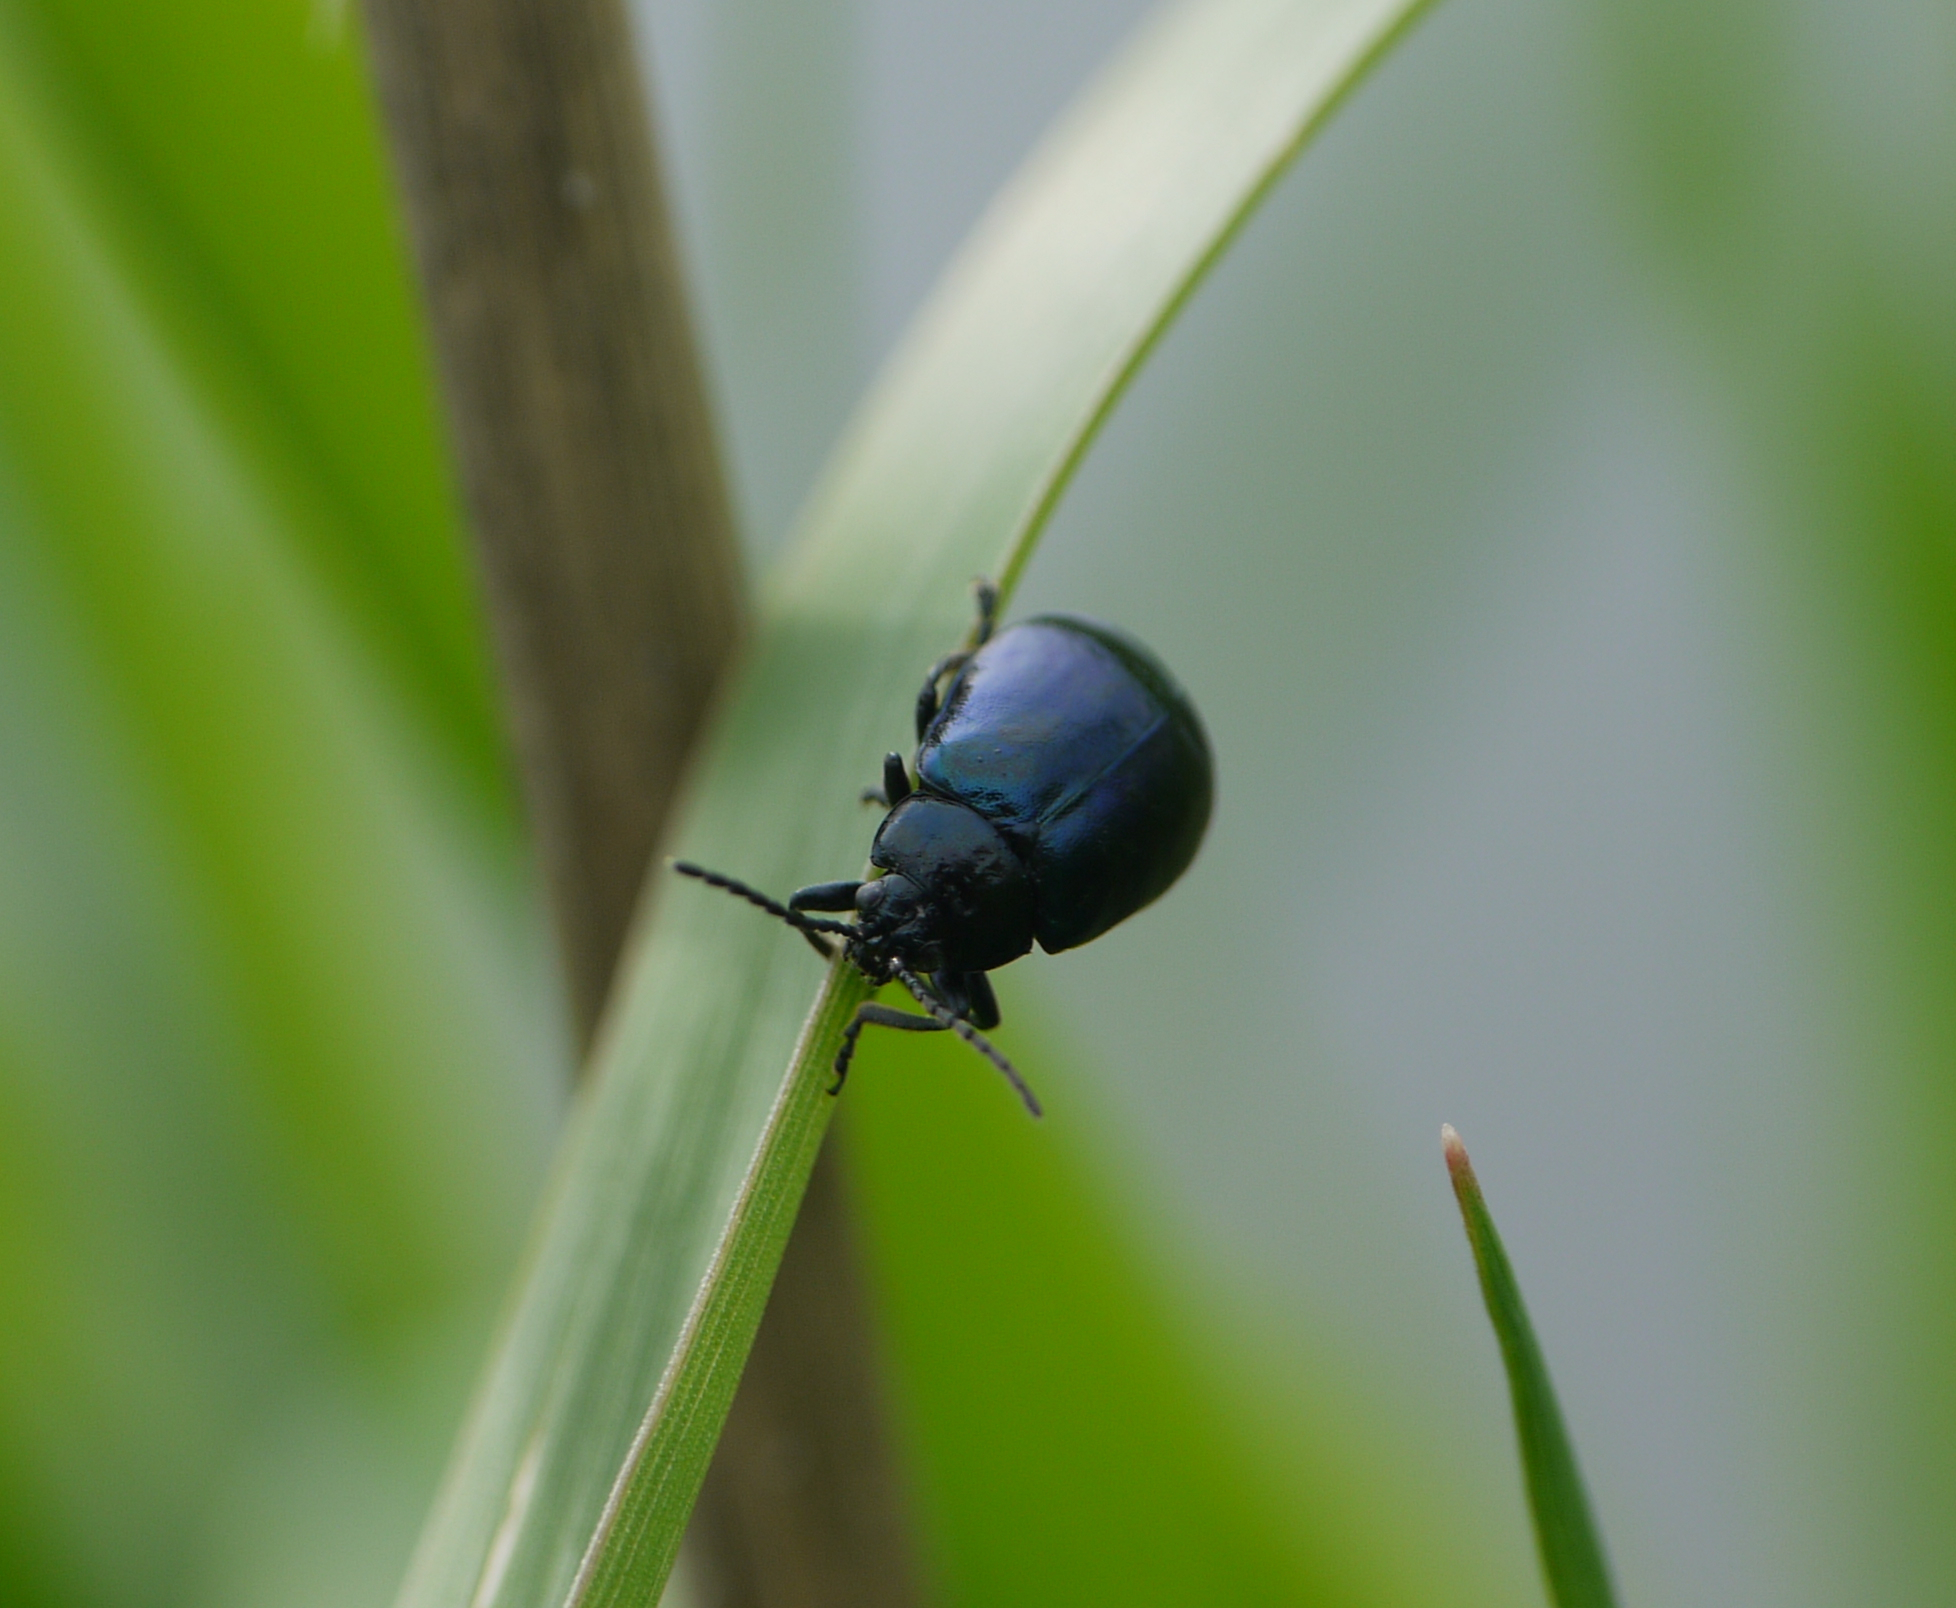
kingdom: Animalia
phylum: Arthropoda
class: Insecta
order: Coleoptera
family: Chrysomelidae
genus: Agelastica
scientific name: Agelastica alni
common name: Alder leaf beetle
